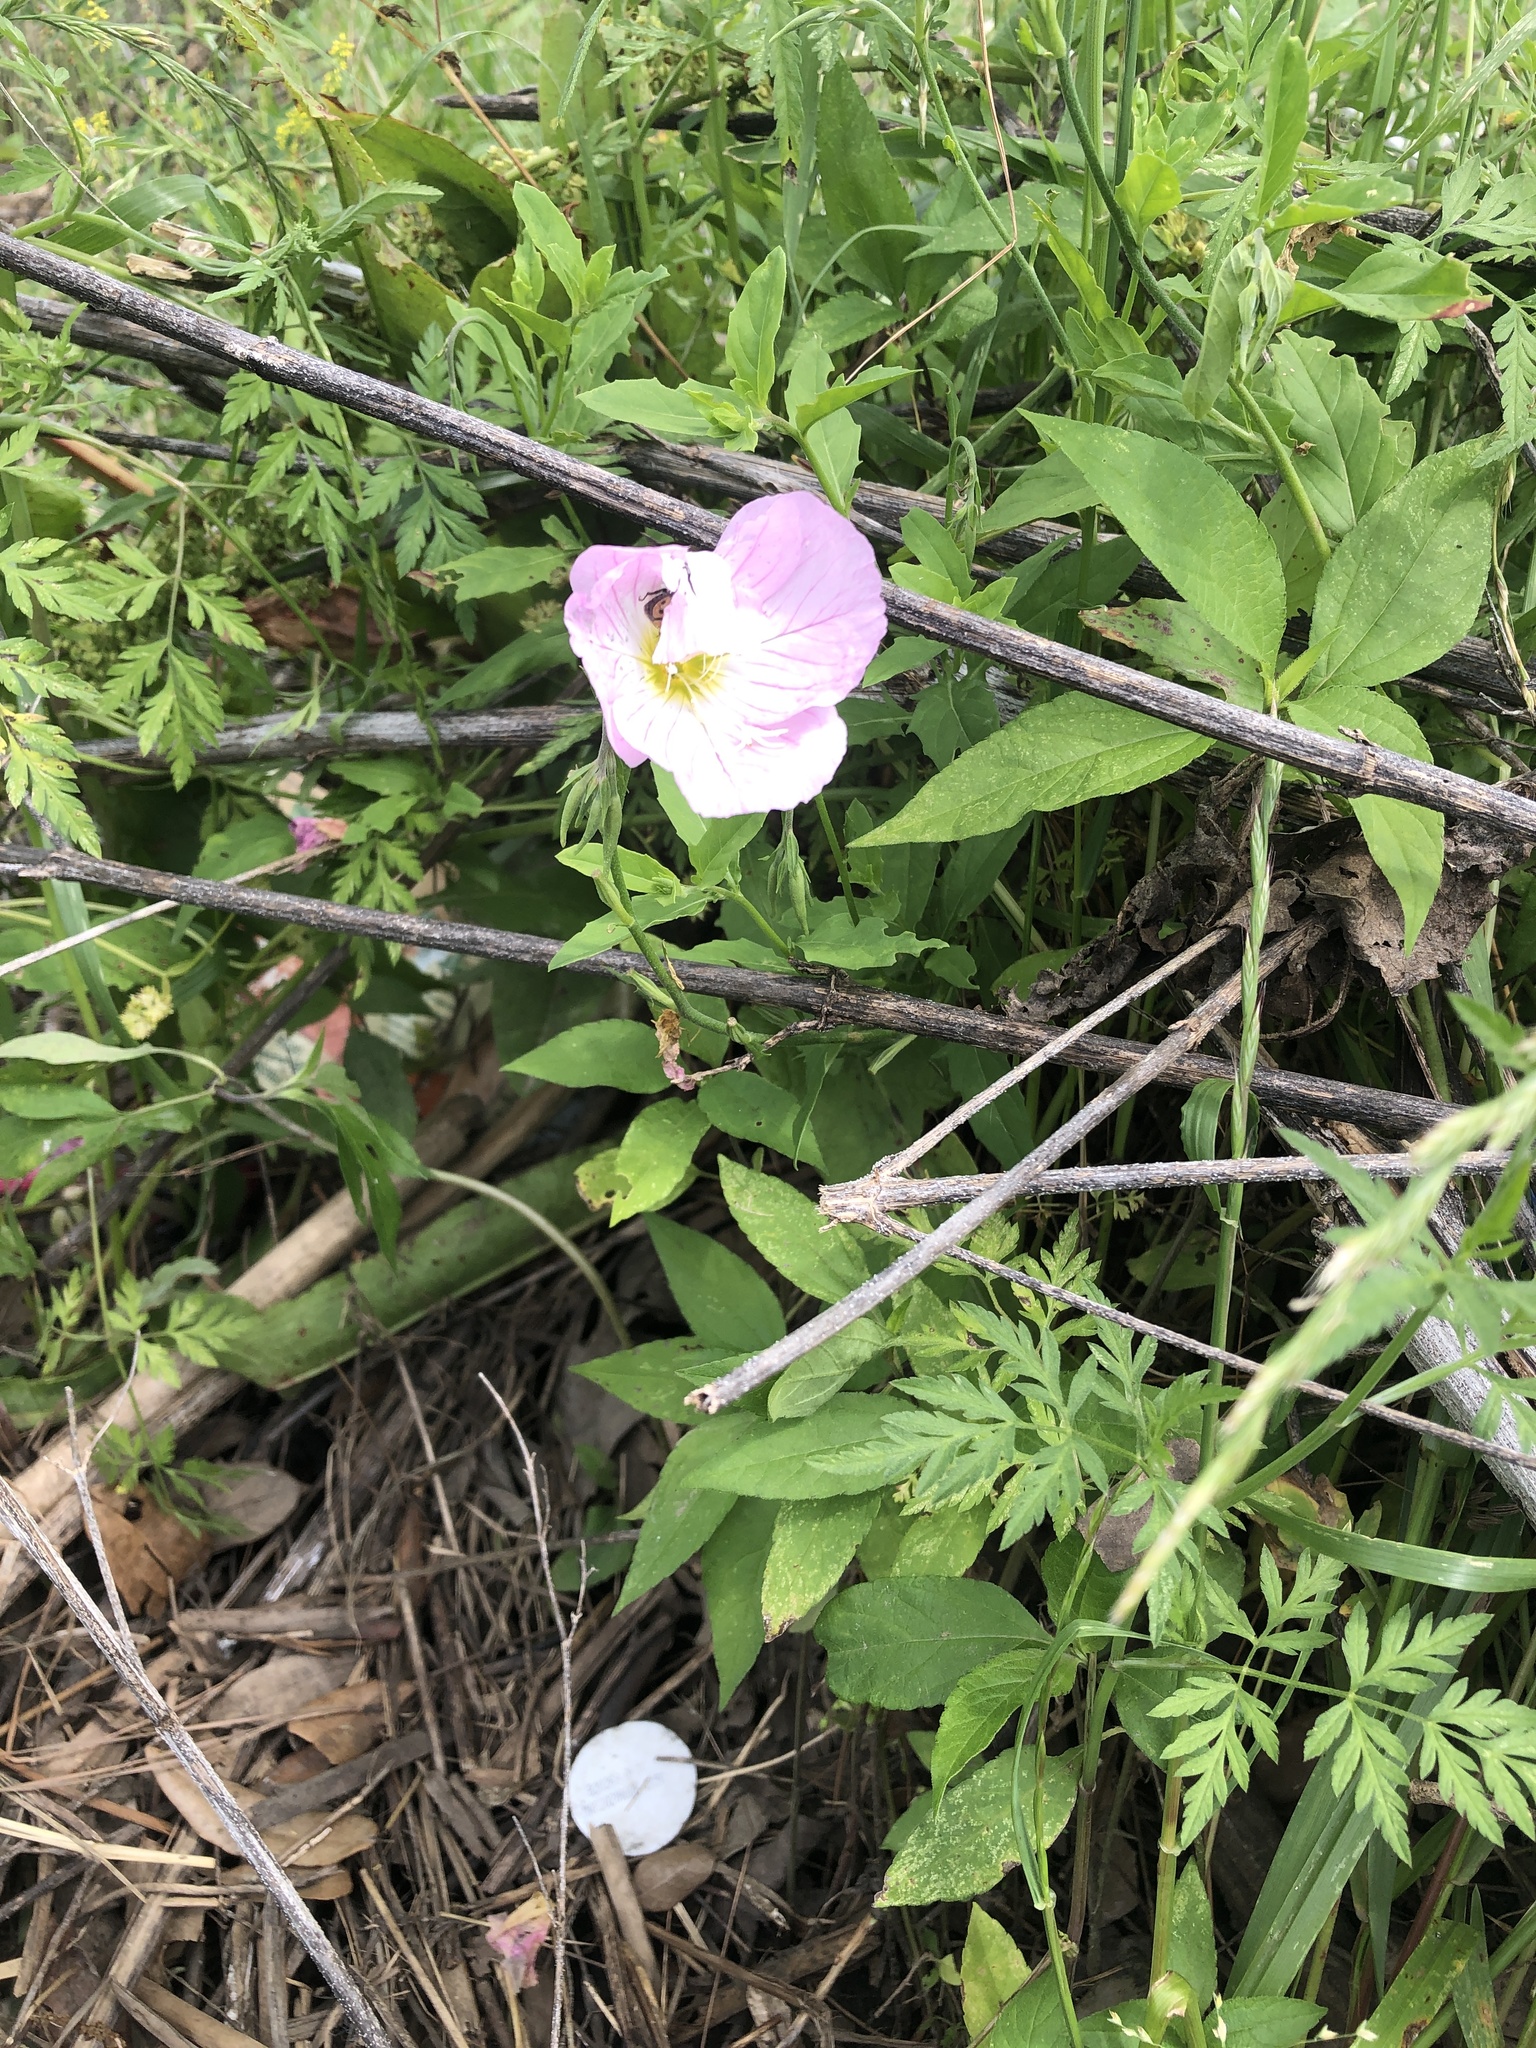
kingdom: Plantae
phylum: Tracheophyta
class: Magnoliopsida
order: Myrtales
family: Onagraceae
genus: Oenothera
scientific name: Oenothera speciosa
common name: White evening-primrose
